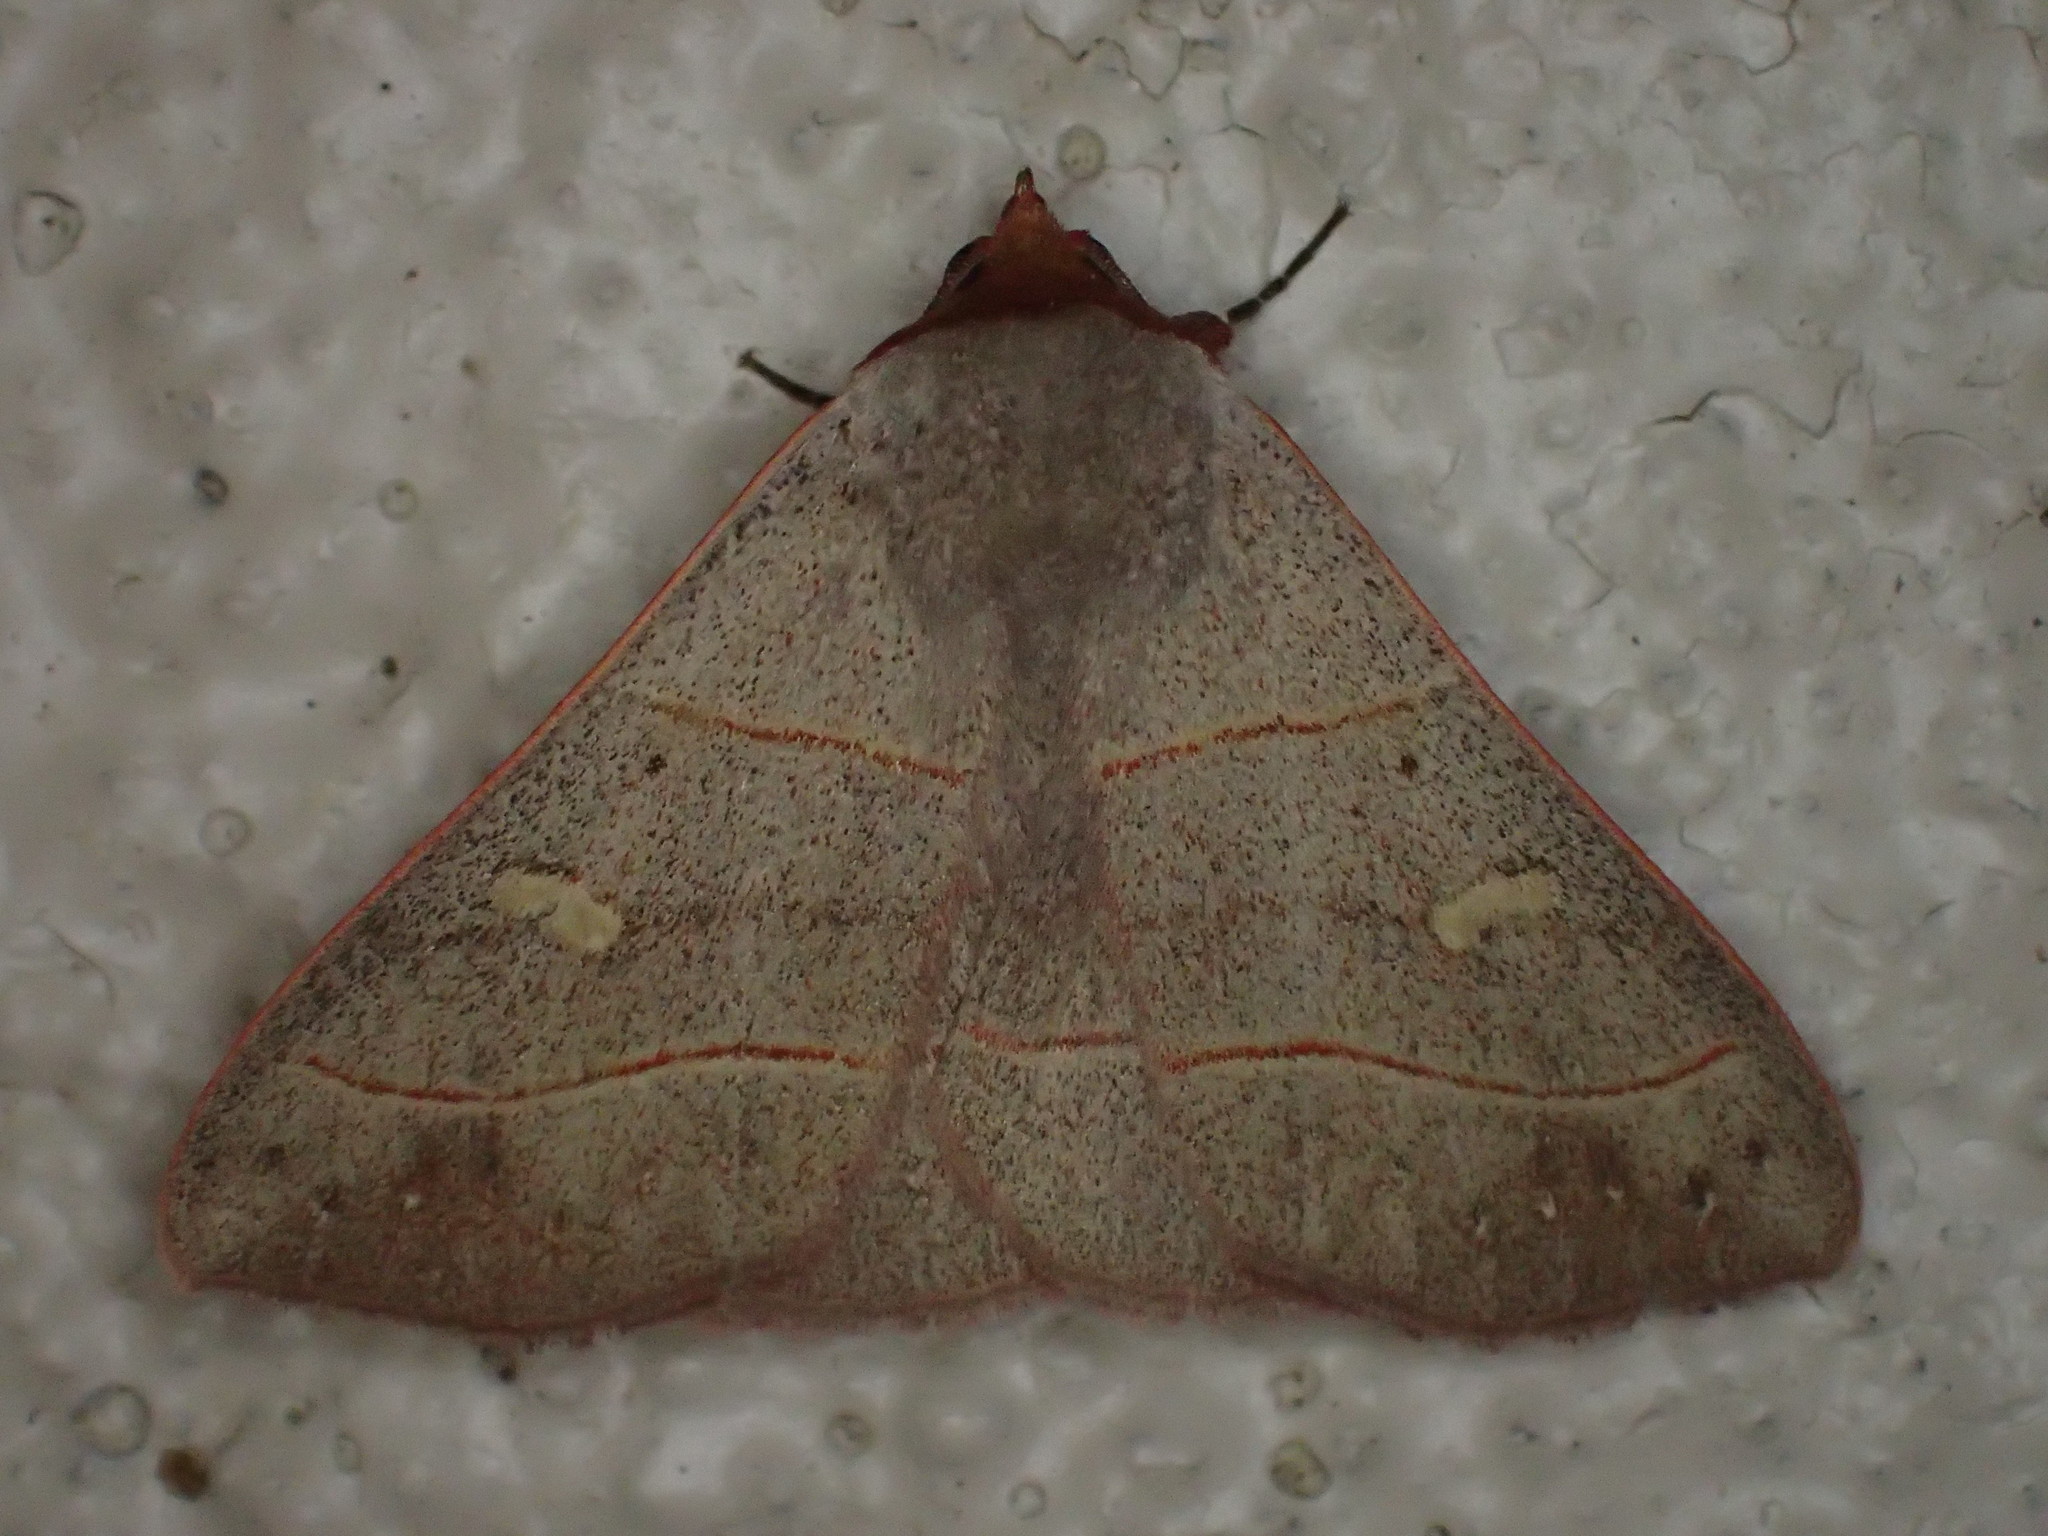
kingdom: Animalia
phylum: Arthropoda
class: Insecta
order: Lepidoptera
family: Erebidae
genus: Panopoda
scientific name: Panopoda rufimargo
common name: Red-lined panopoda moth
